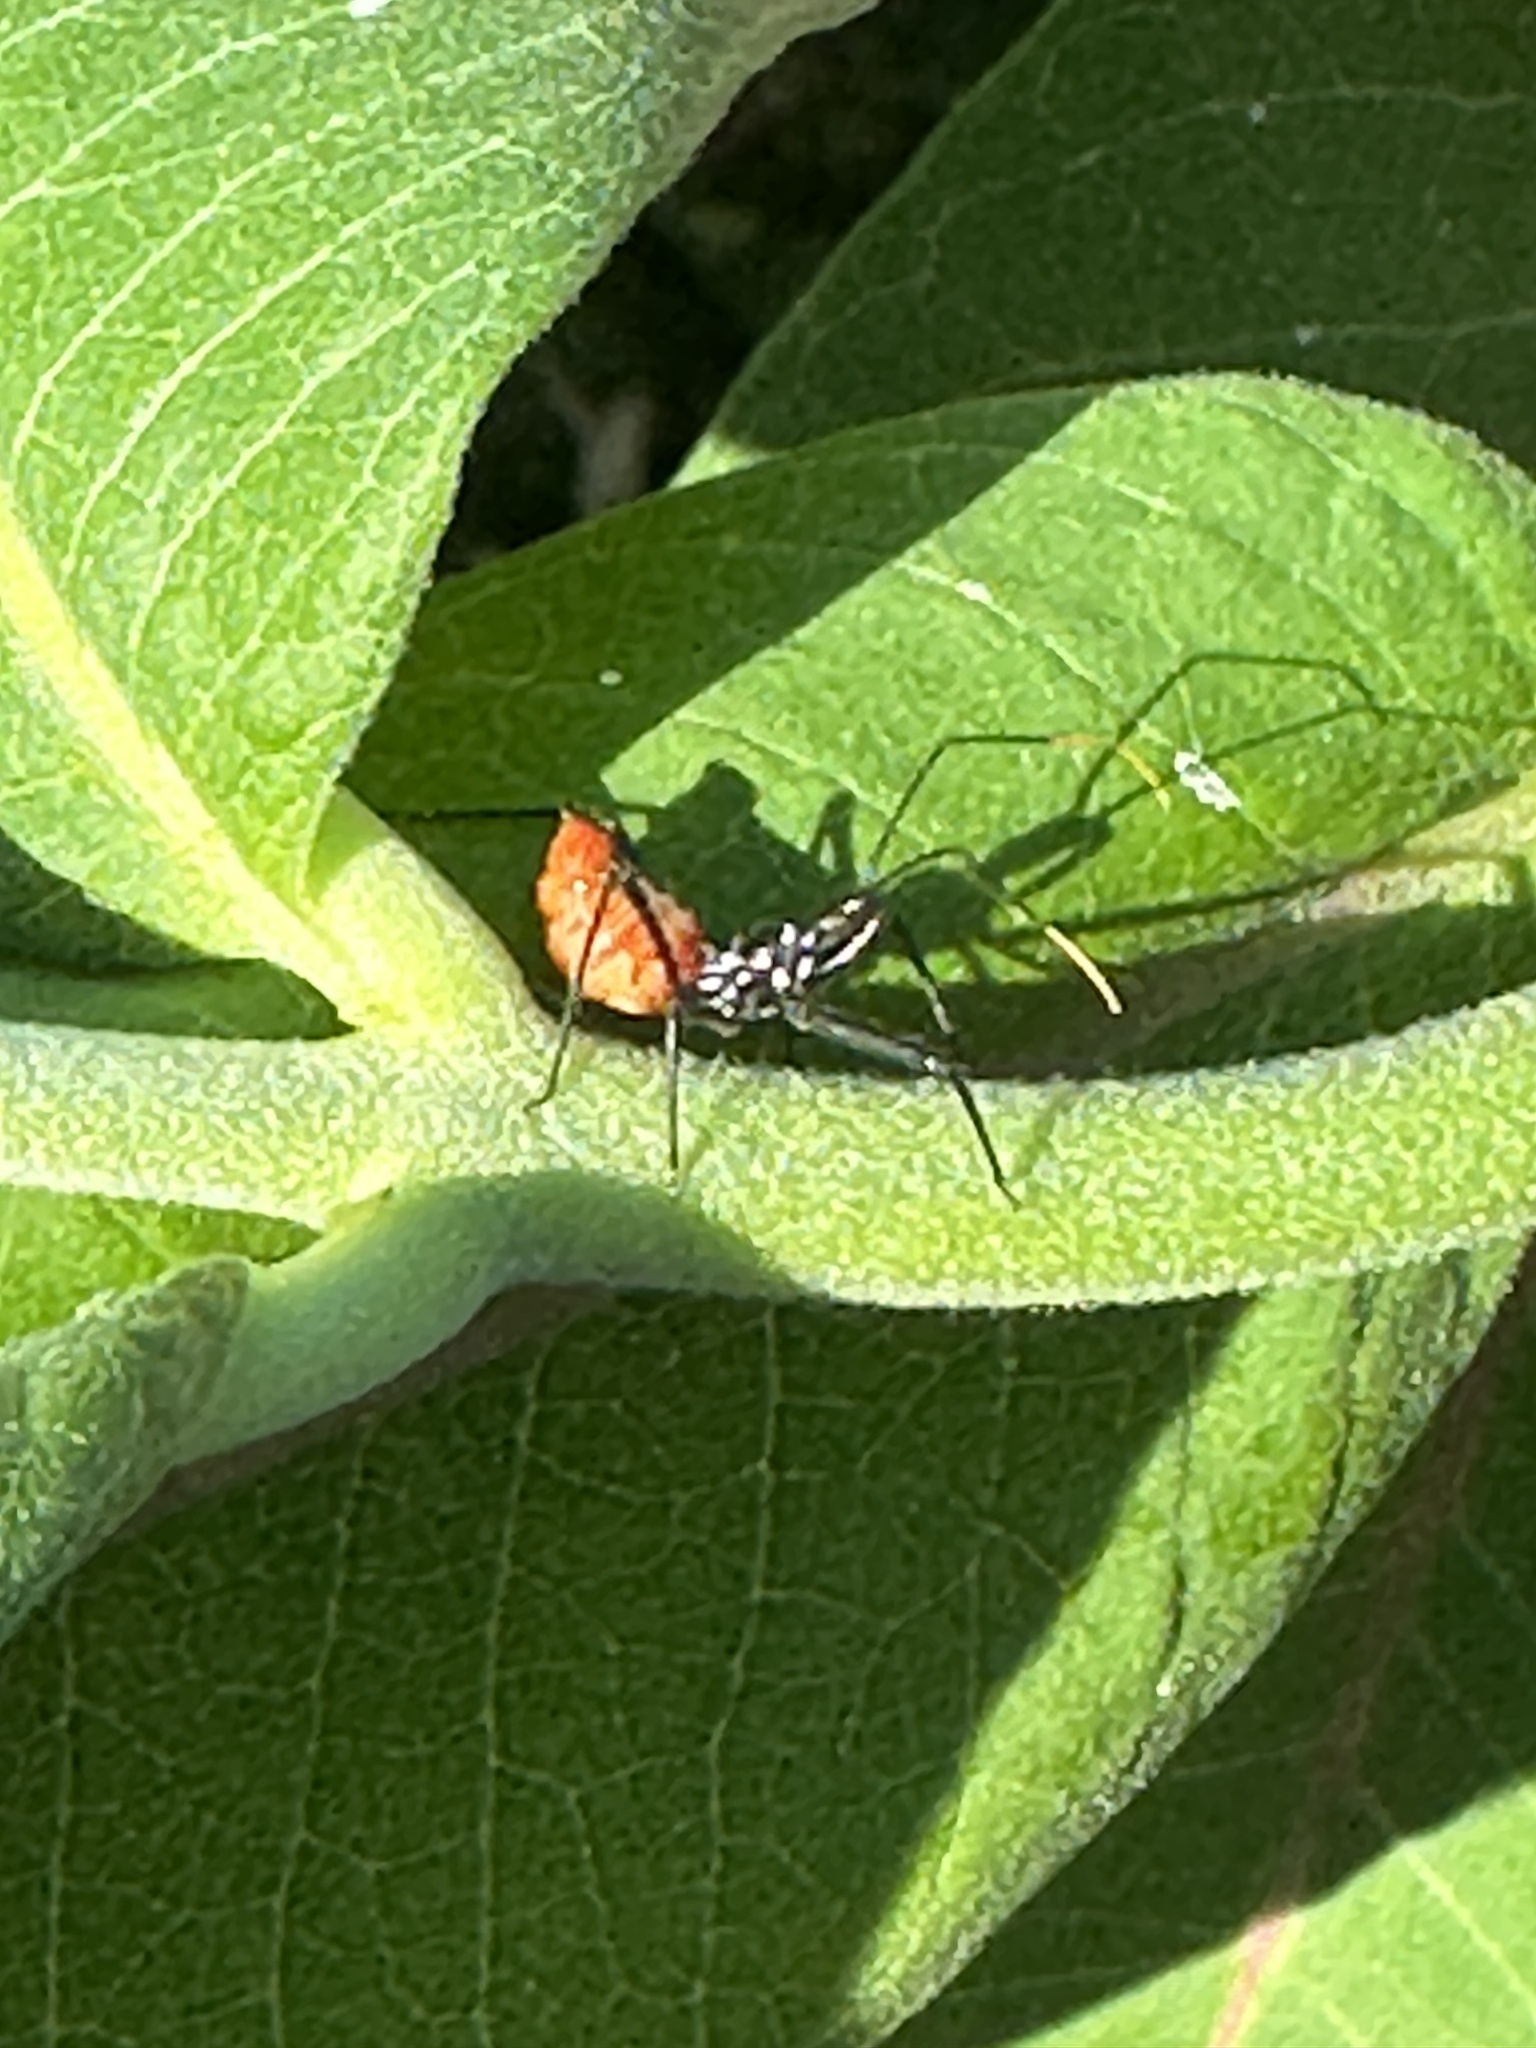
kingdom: Animalia
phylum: Arthropoda
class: Insecta
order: Hemiptera
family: Reduviidae
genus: Arilus
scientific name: Arilus cristatus
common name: North american wheel bug
